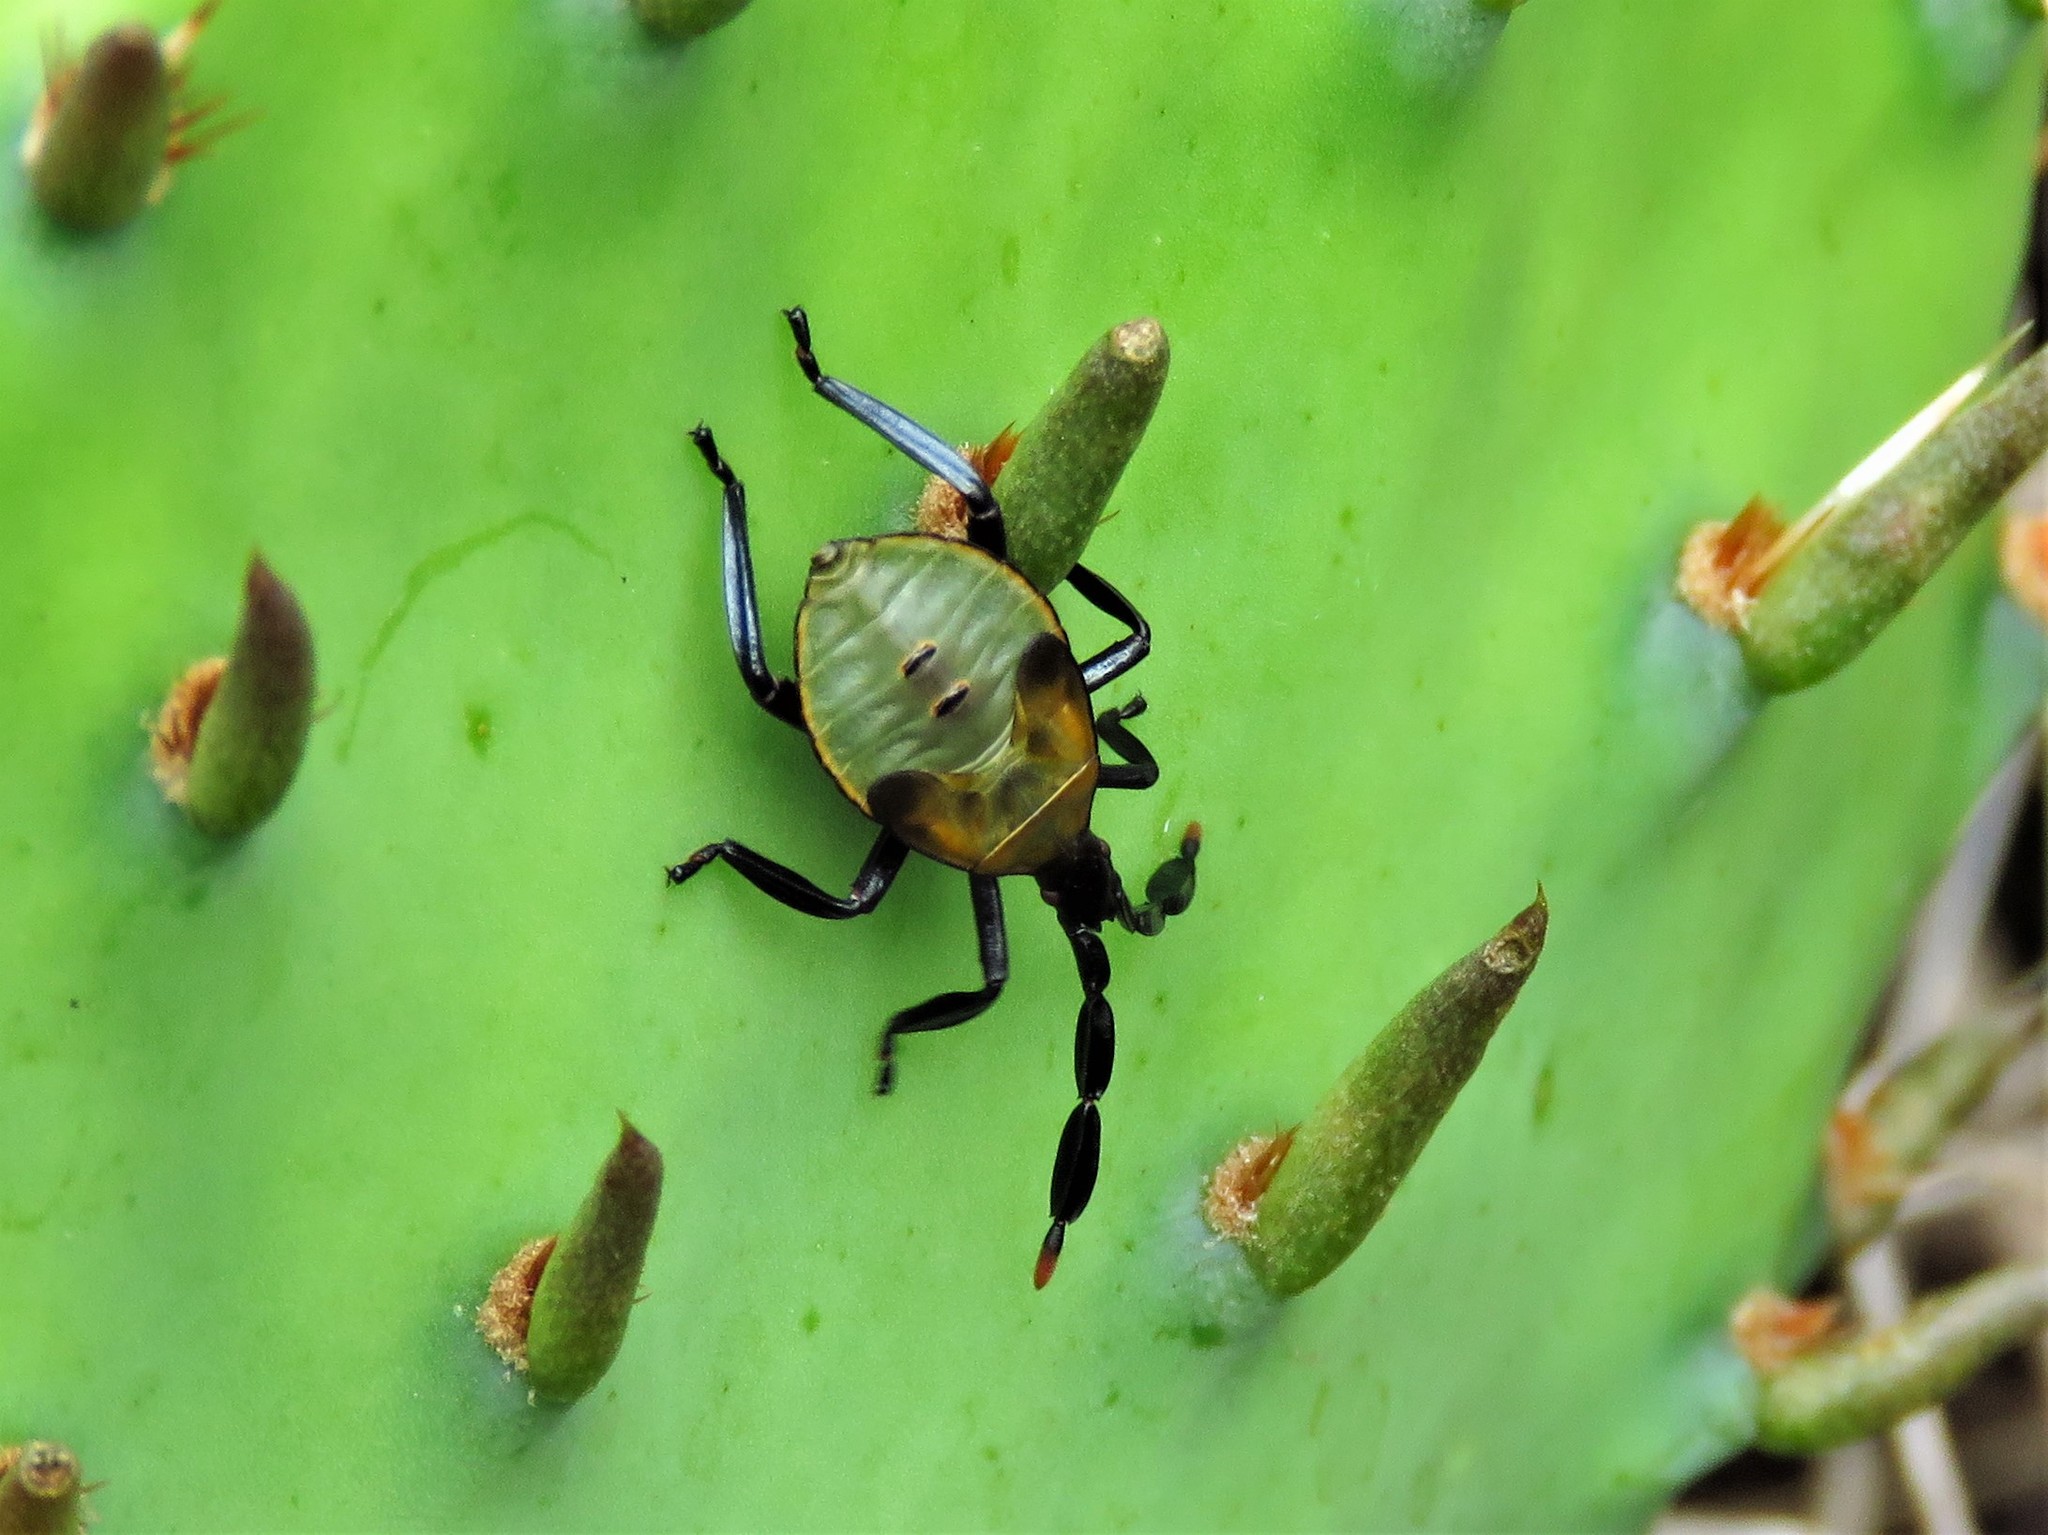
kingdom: Animalia
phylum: Arthropoda
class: Insecta
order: Hemiptera
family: Coreidae
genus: Chelinidea
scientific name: Chelinidea vittiger
